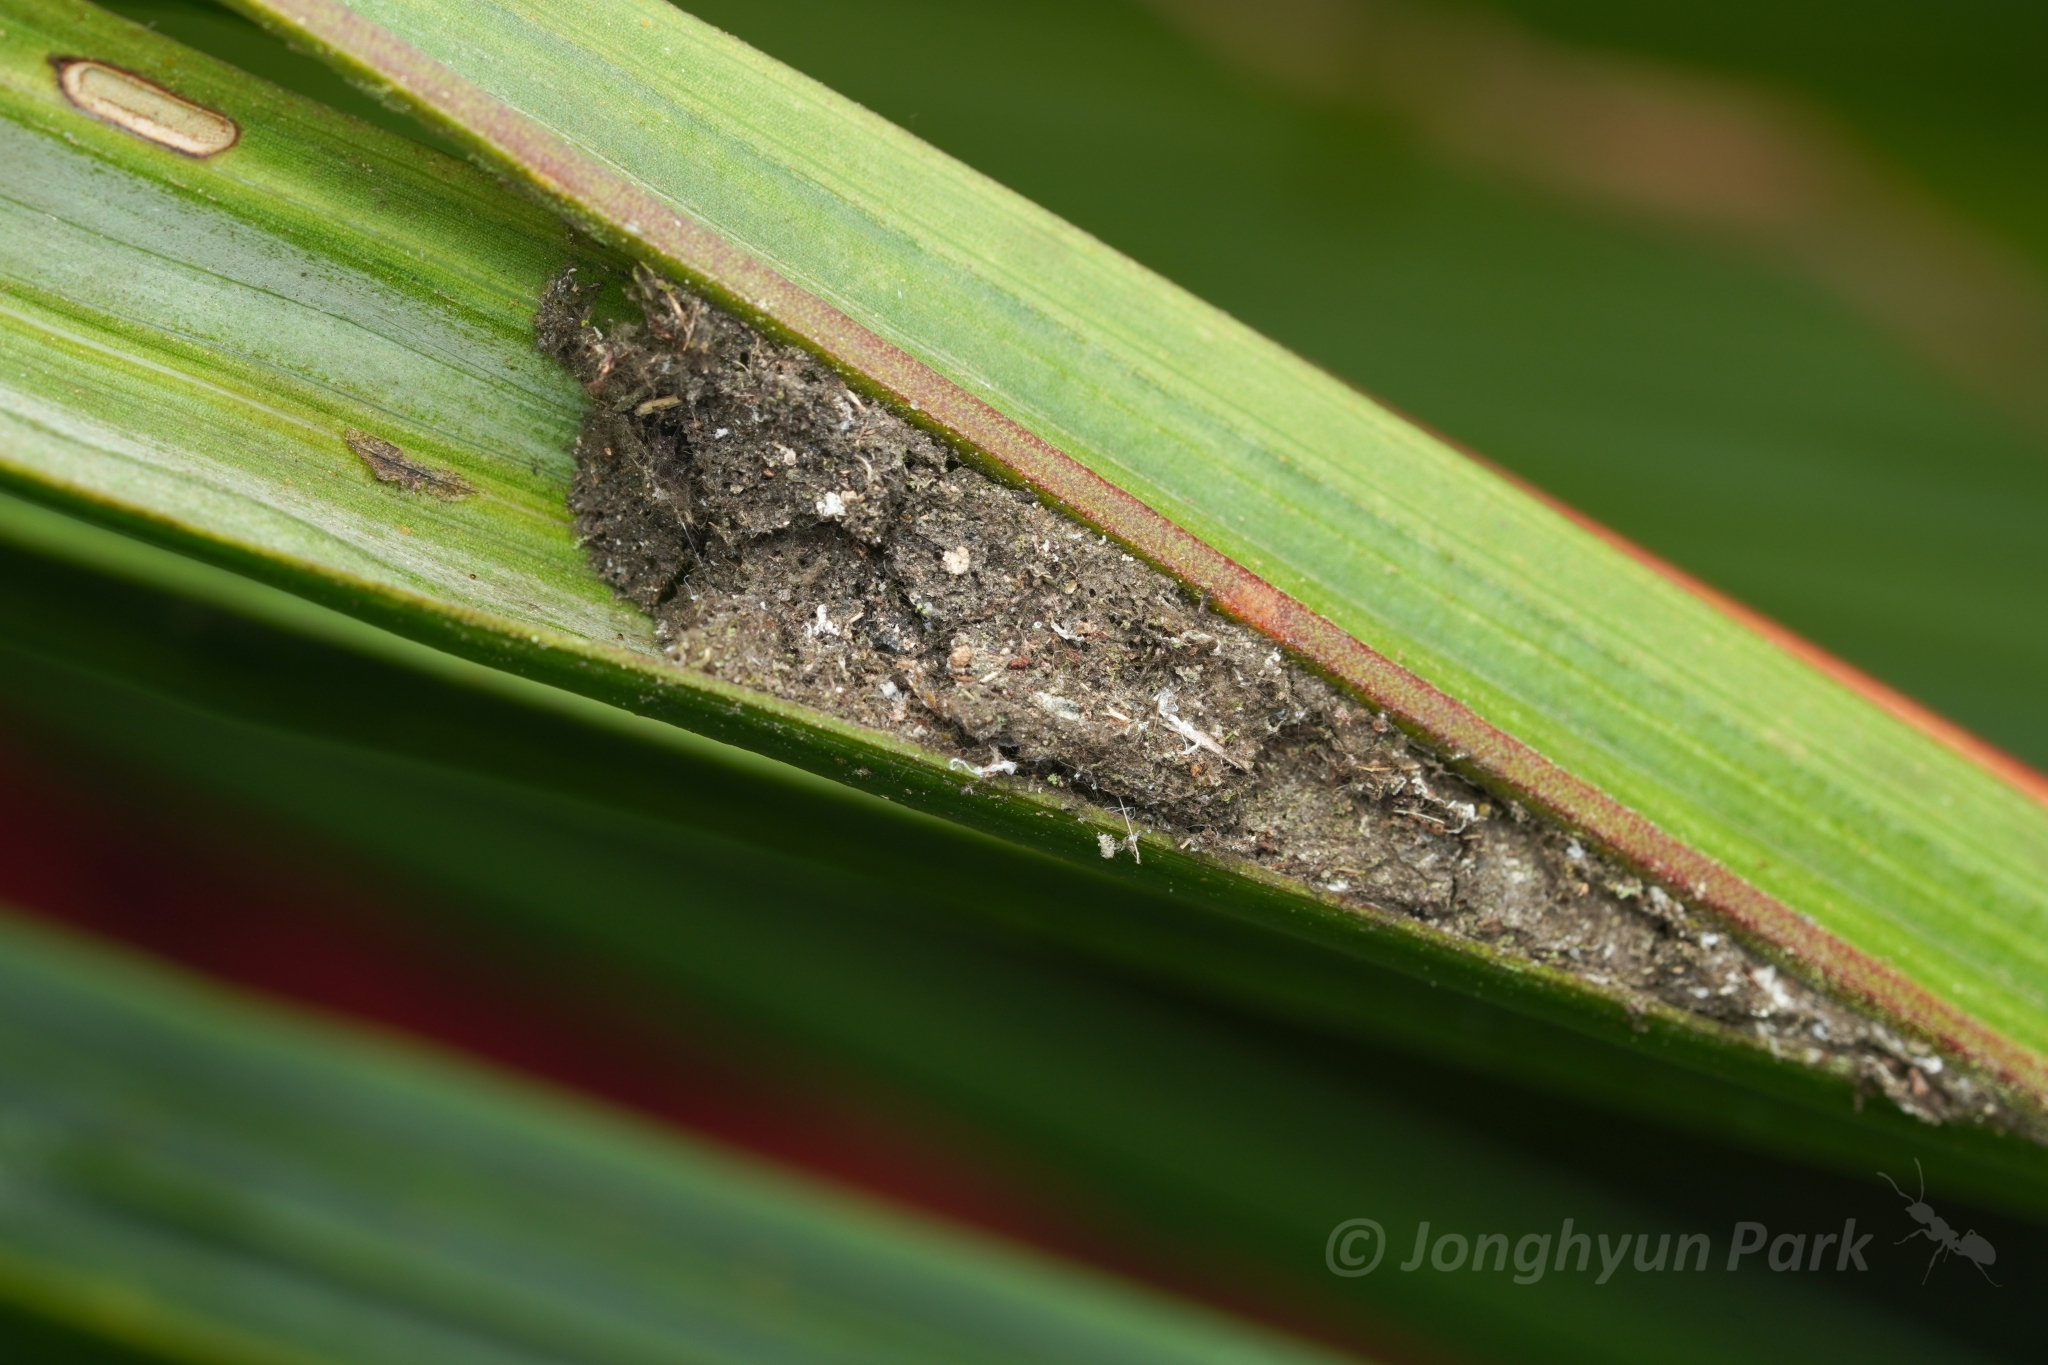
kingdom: Animalia
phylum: Arthropoda
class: Insecta
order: Hymenoptera
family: Formicidae
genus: Technomyrmex
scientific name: Technomyrmex vitiensis
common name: Ant
